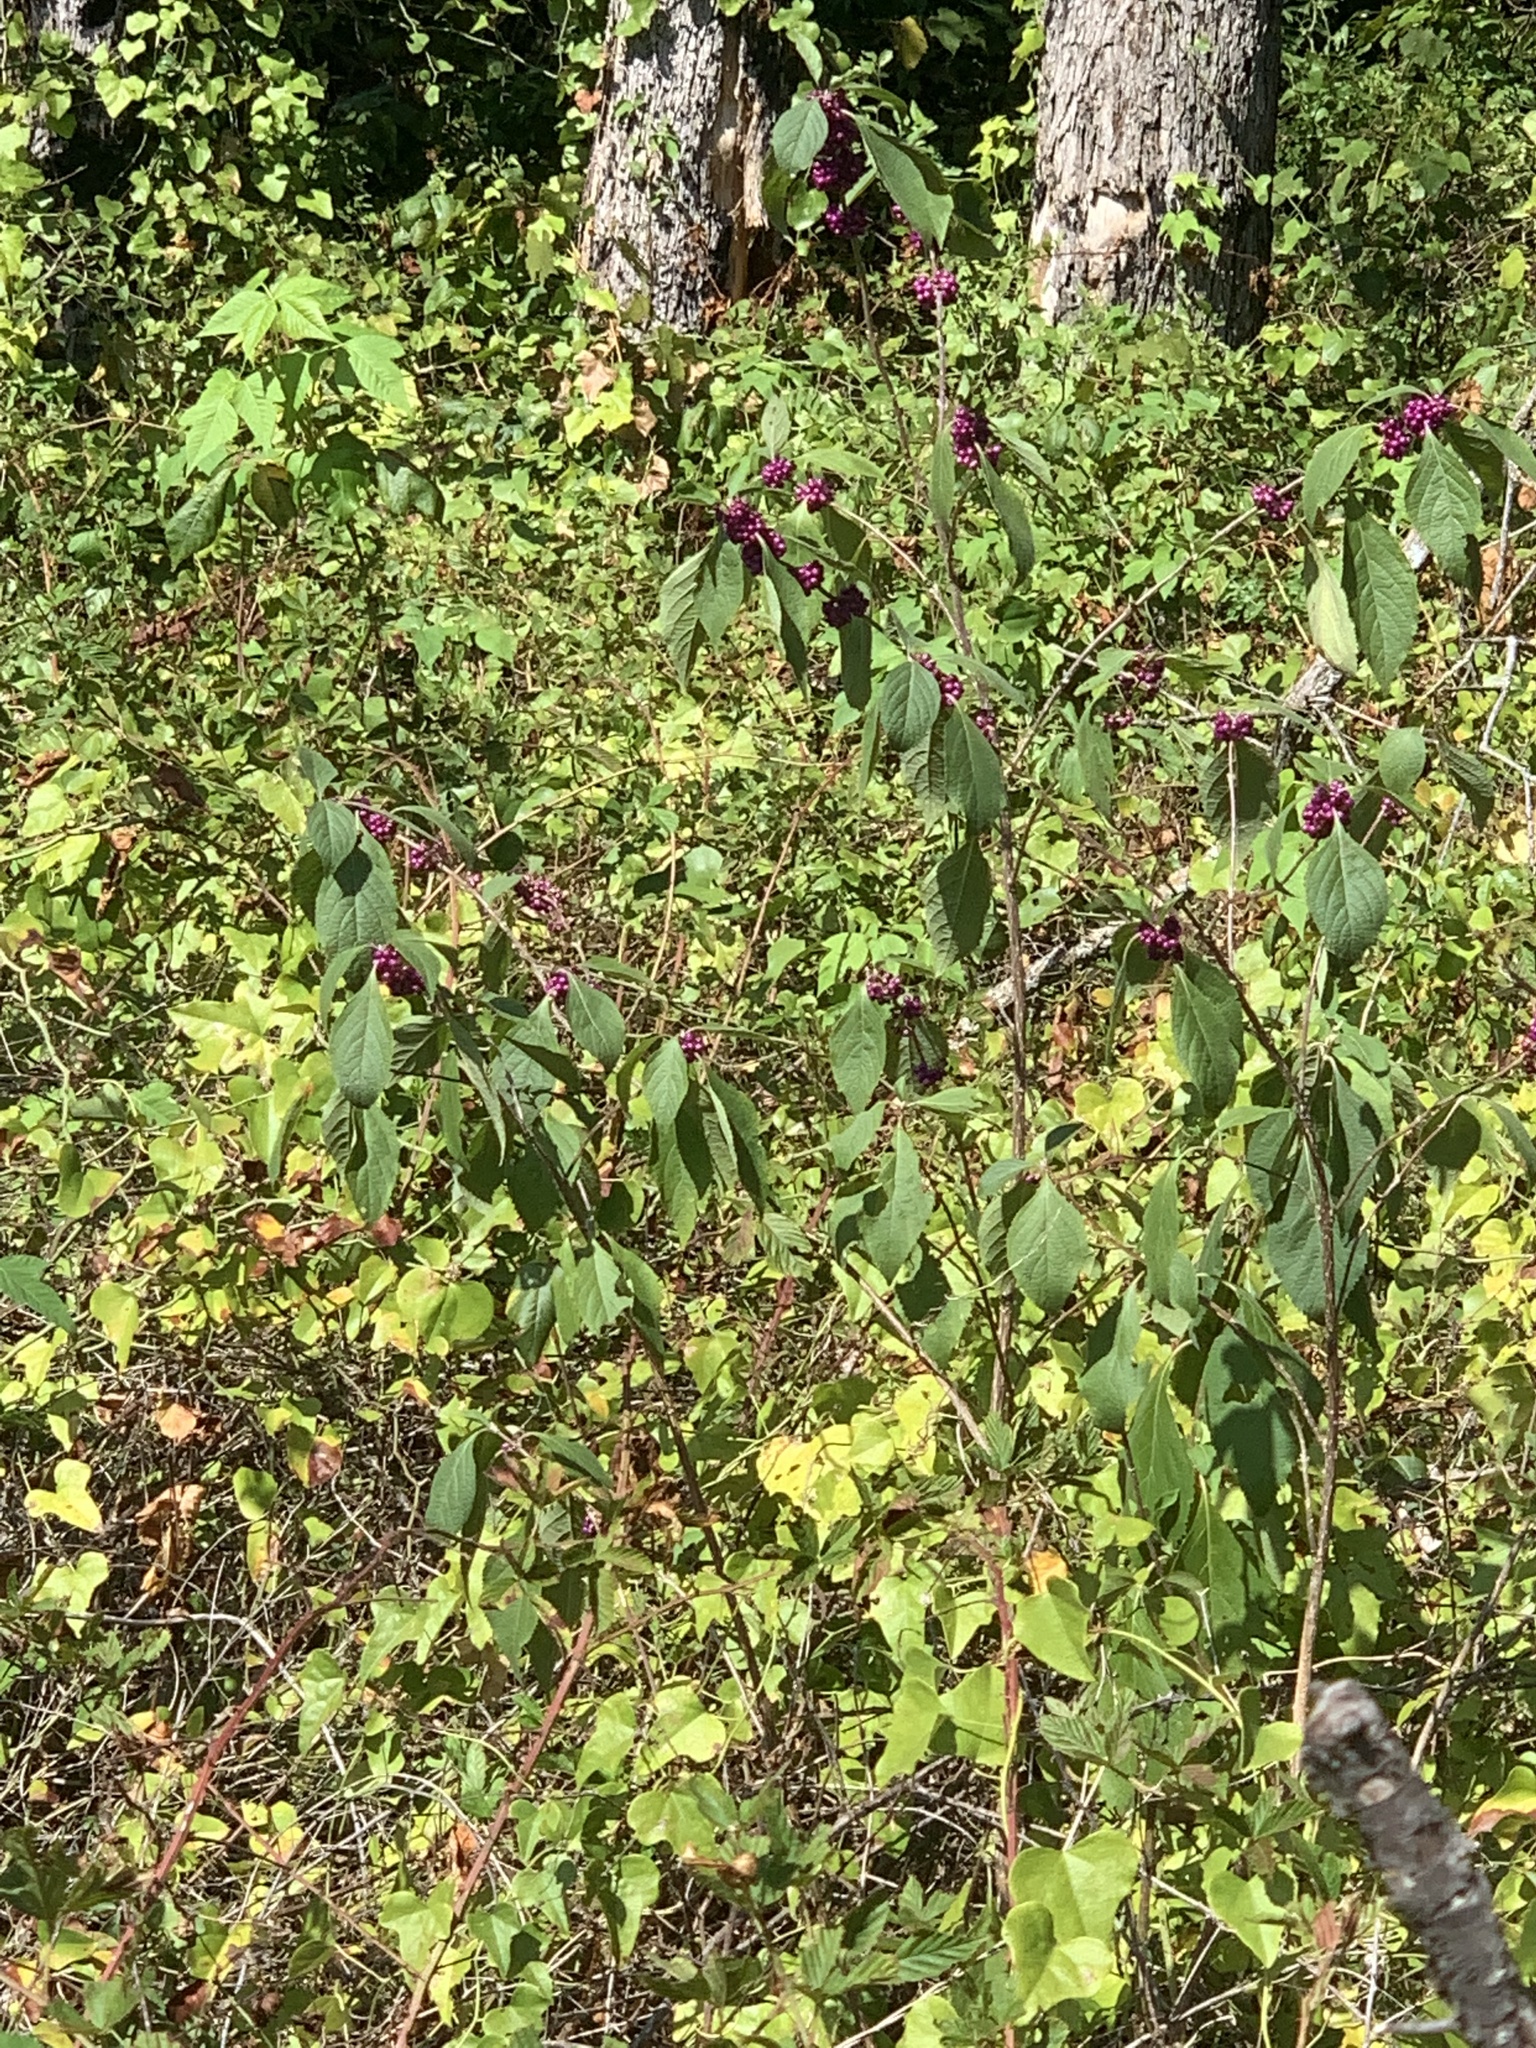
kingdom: Plantae
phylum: Tracheophyta
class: Magnoliopsida
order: Lamiales
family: Lamiaceae
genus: Callicarpa
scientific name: Callicarpa americana
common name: American beautyberry
